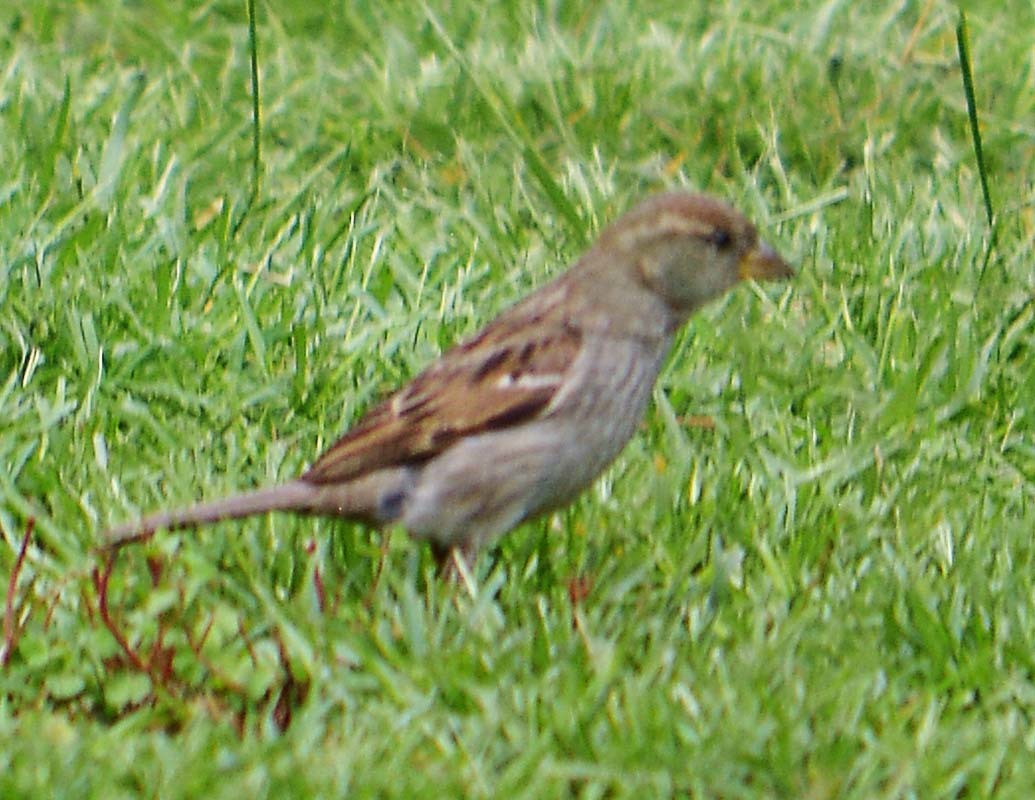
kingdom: Animalia
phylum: Chordata
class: Aves
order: Passeriformes
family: Passeridae
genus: Passer
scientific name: Passer domesticus
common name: House sparrow
